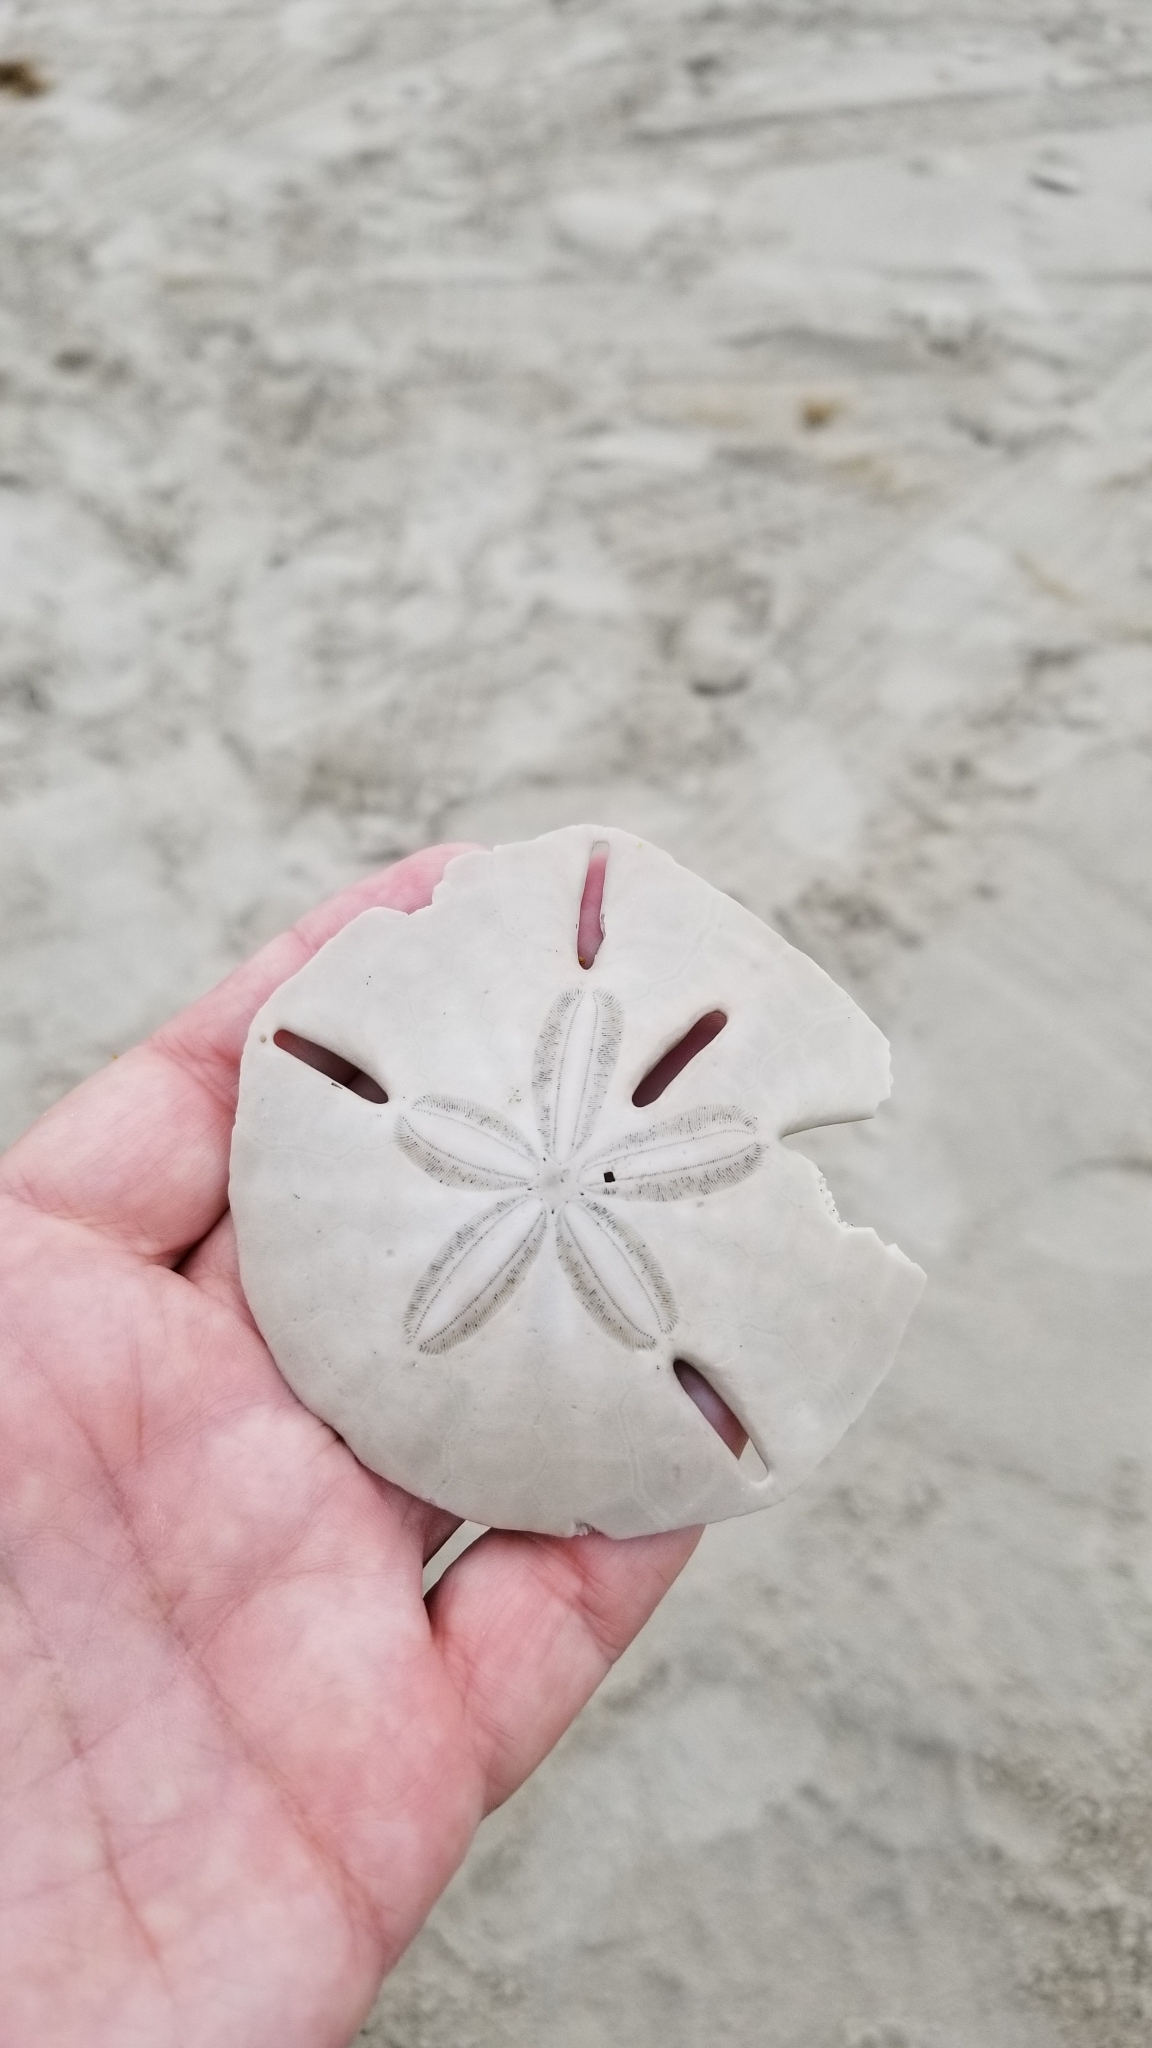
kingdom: Animalia
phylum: Echinodermata
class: Echinoidea
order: Echinolampadacea
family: Mellitidae
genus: Mellita
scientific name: Mellita quinquiesperforata
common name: Sand dollar
